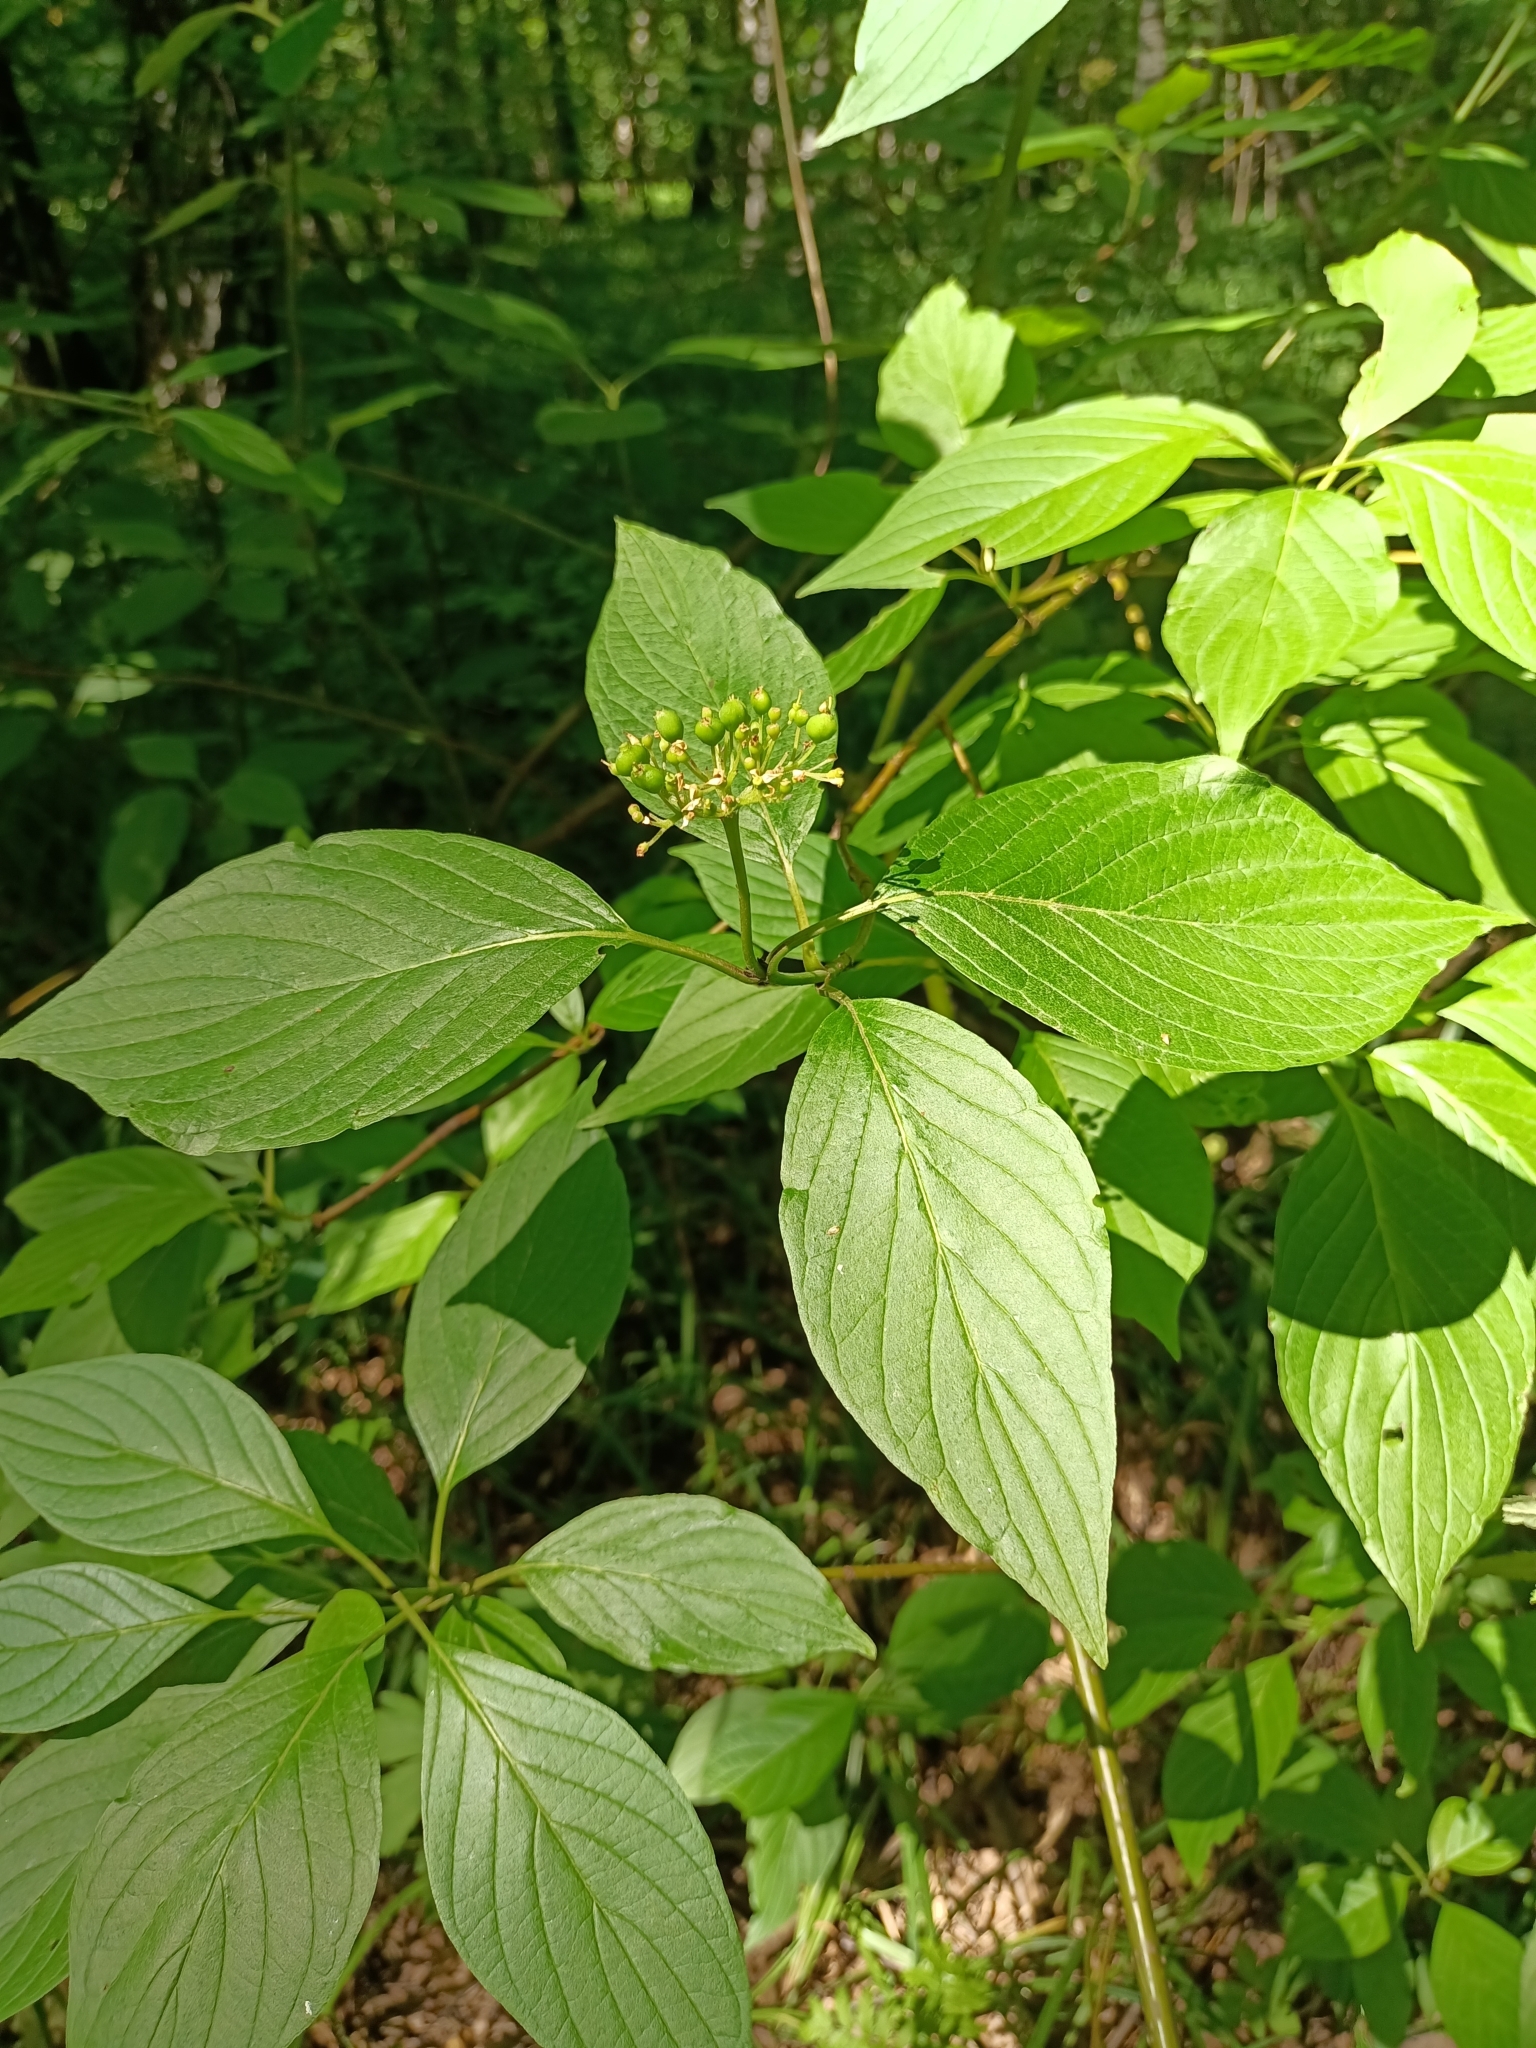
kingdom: Plantae
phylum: Tracheophyta
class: Magnoliopsida
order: Cornales
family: Cornaceae
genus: Cornus
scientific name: Cornus alba
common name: White dogwood
